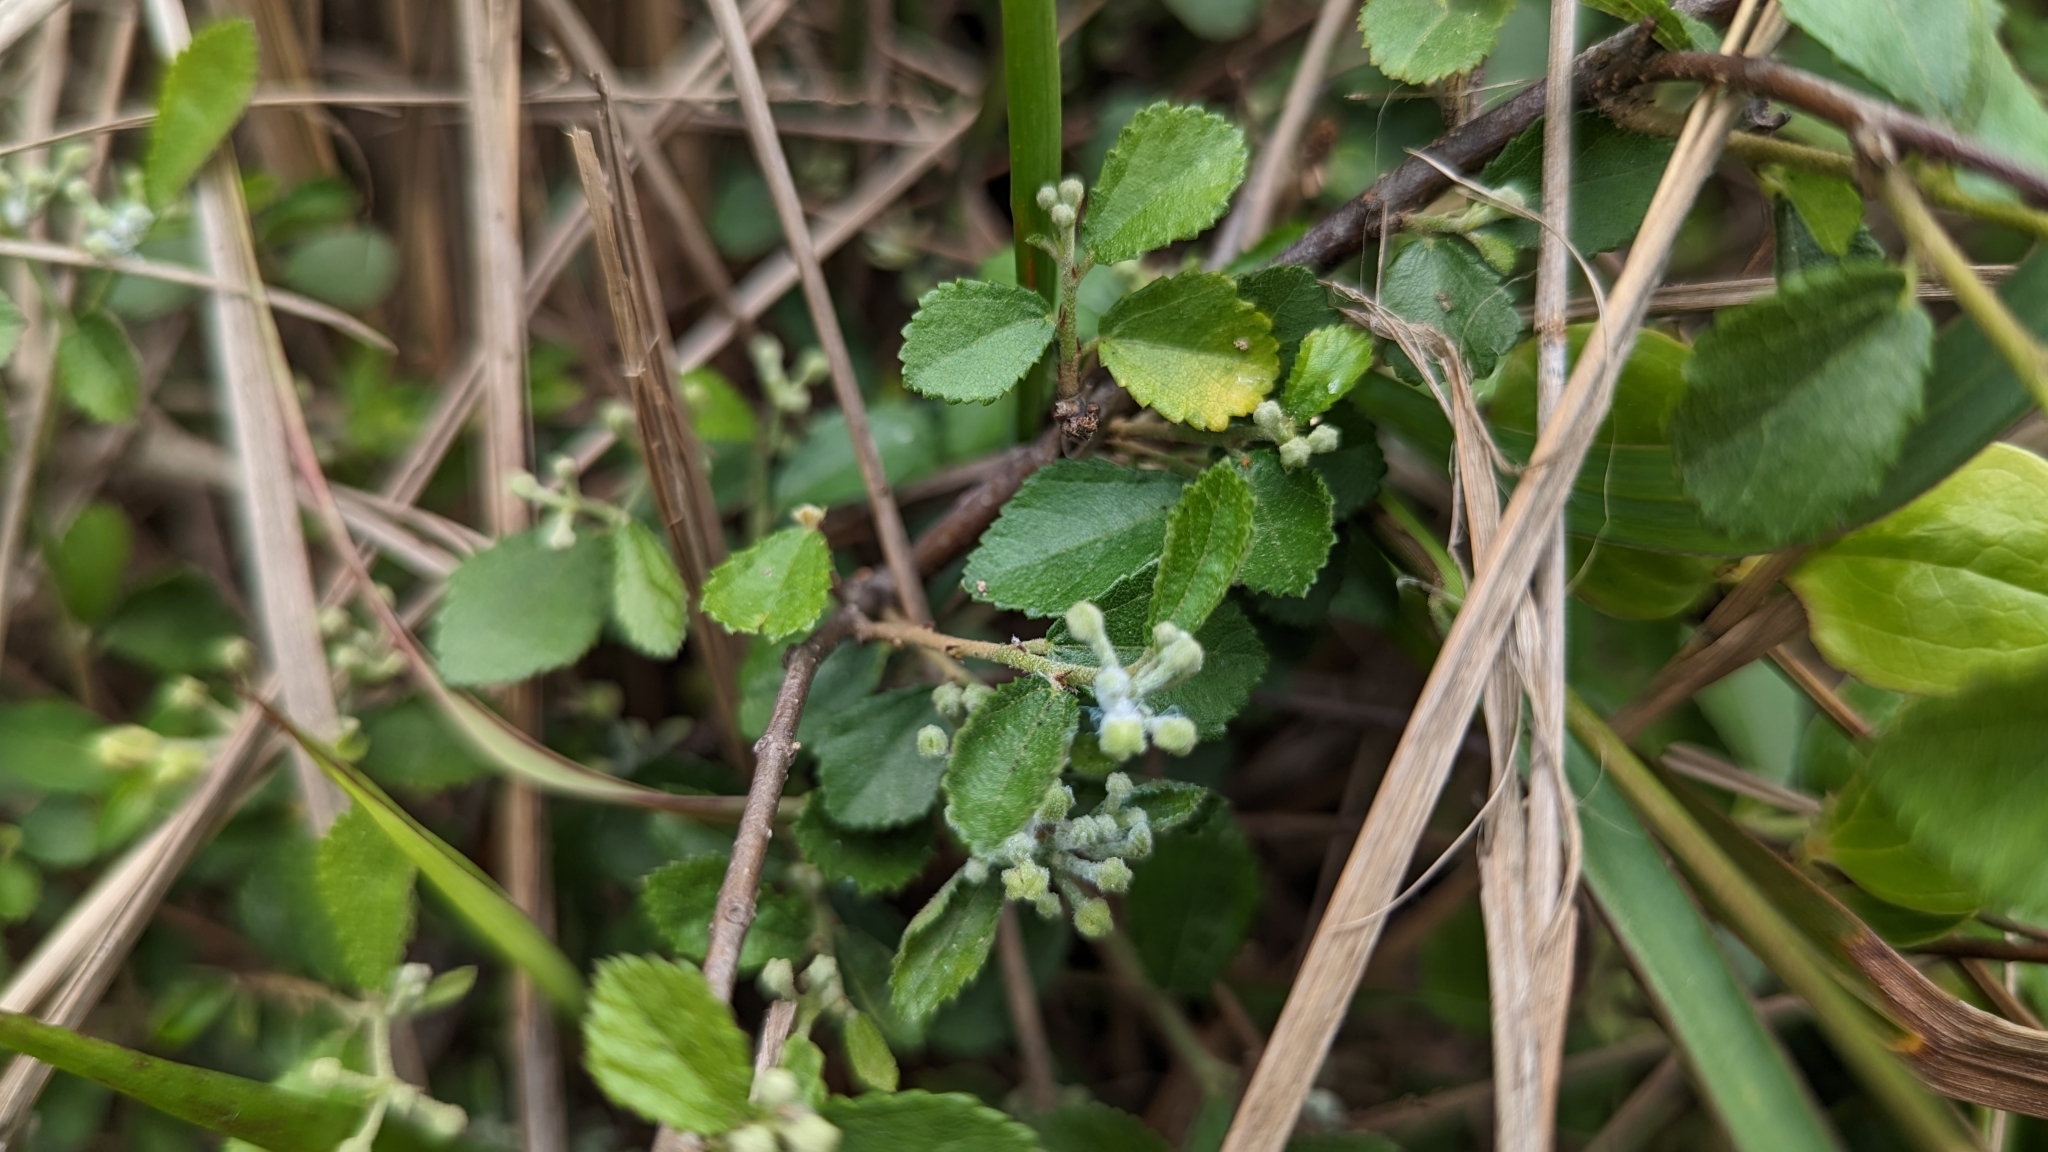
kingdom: Plantae
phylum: Tracheophyta
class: Magnoliopsida
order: Malvales
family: Malvaceae
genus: Grewia
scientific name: Grewia rhombifolia
